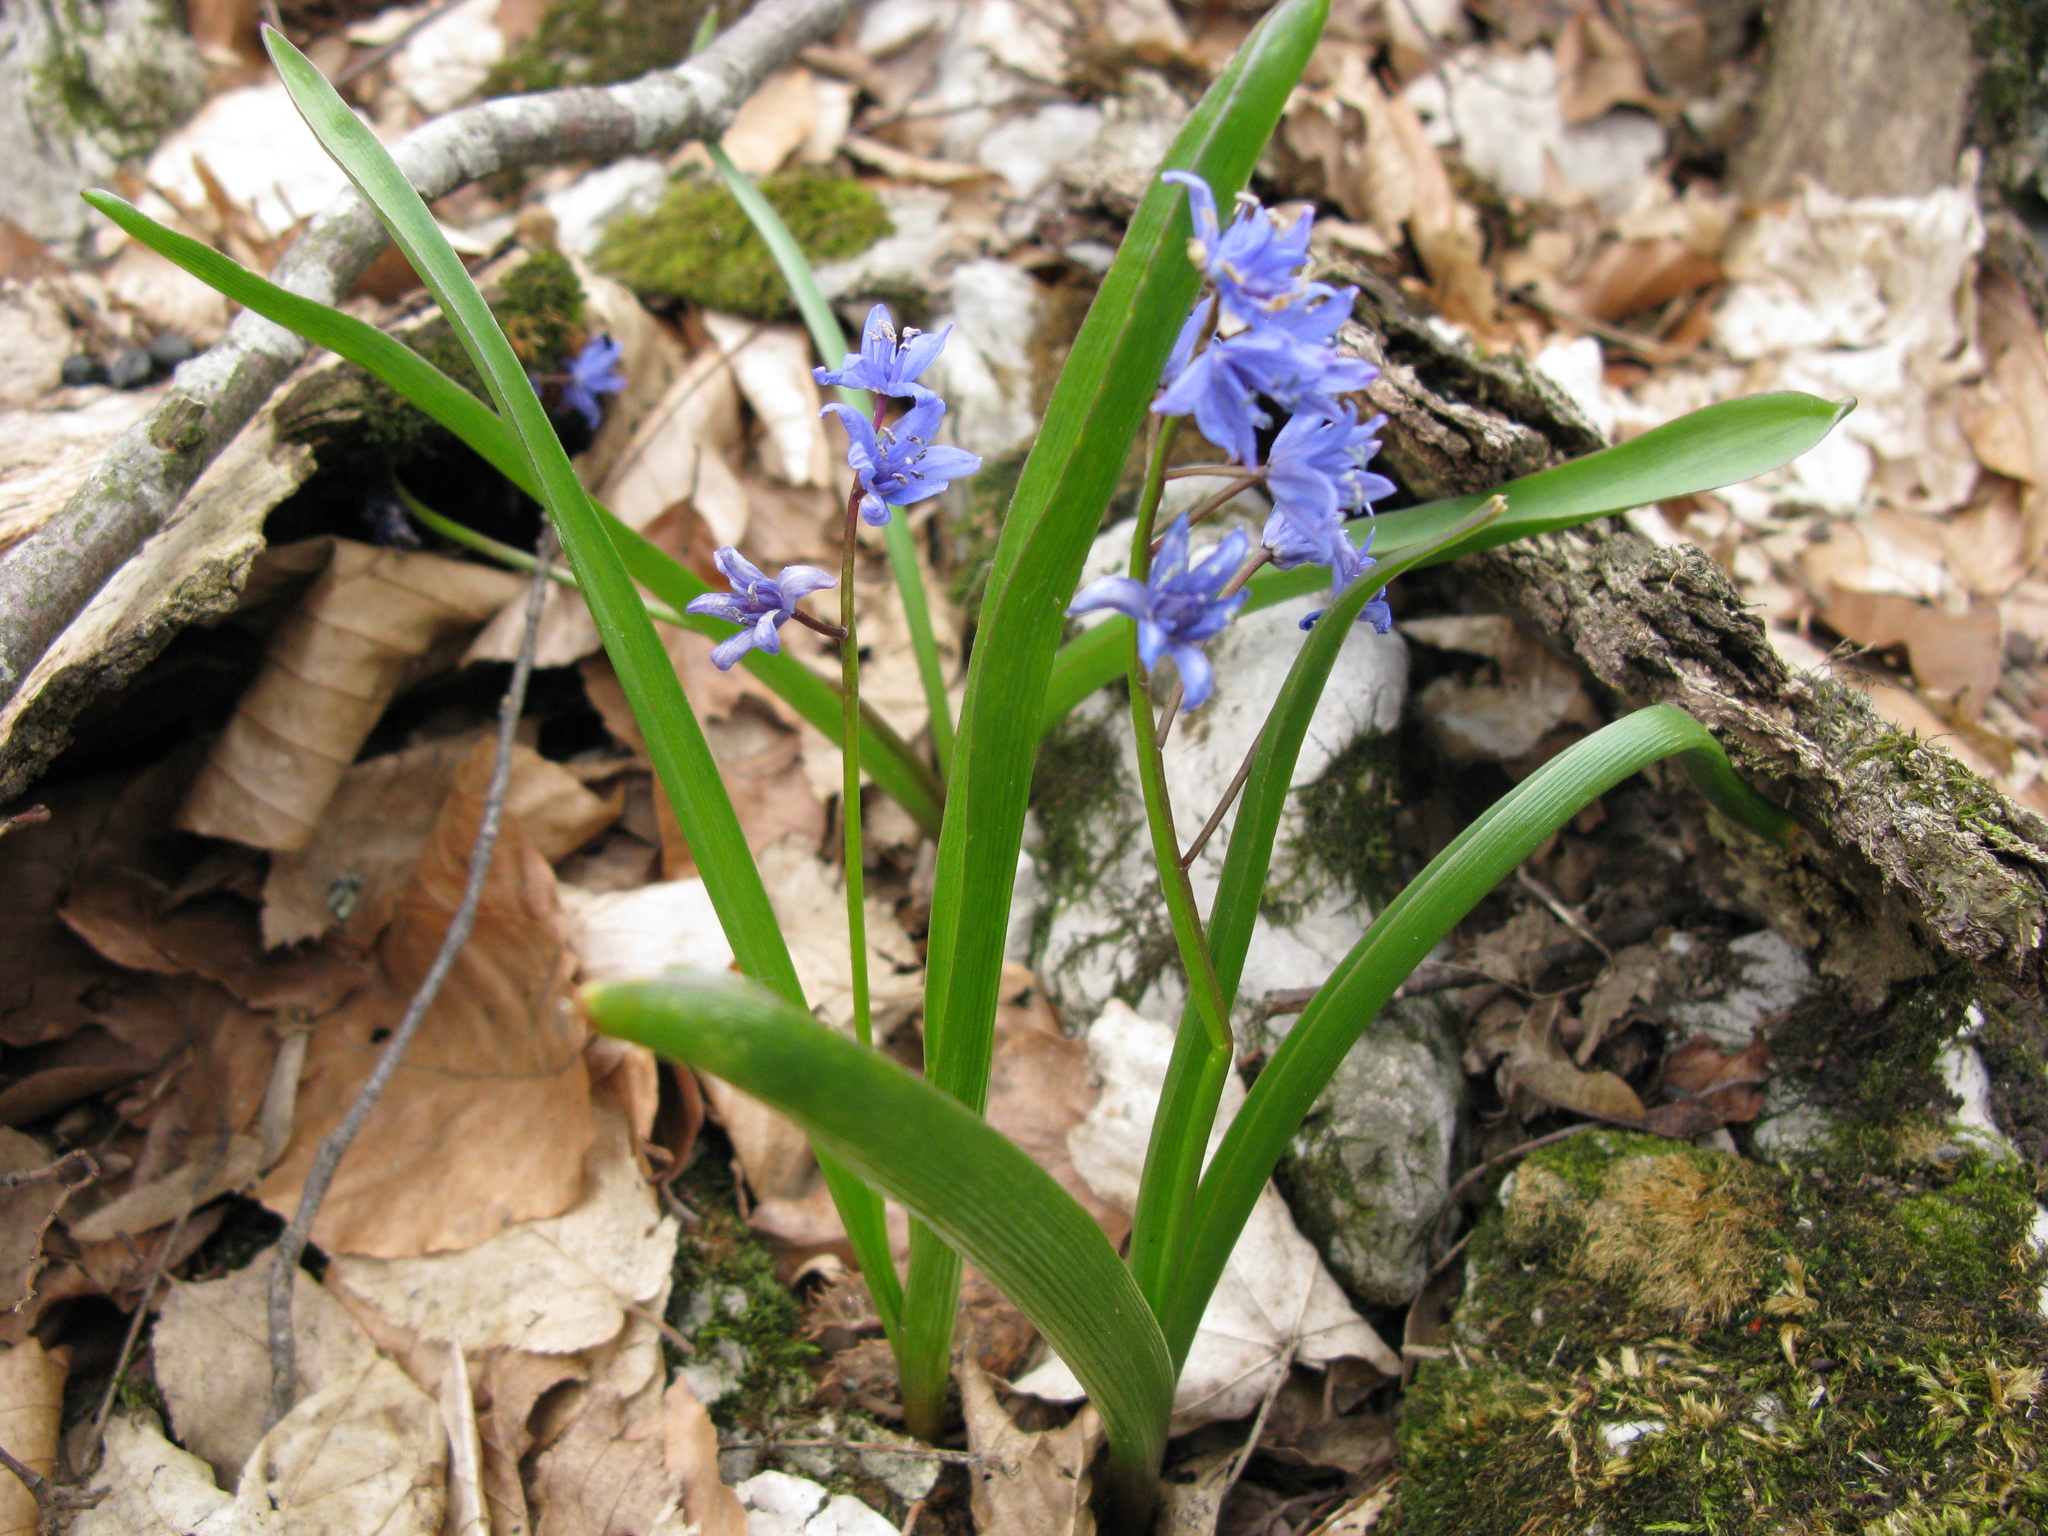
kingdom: Plantae
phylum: Tracheophyta
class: Liliopsida
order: Asparagales
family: Asparagaceae
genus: Scilla
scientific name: Scilla bifolia
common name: Alpine squill
